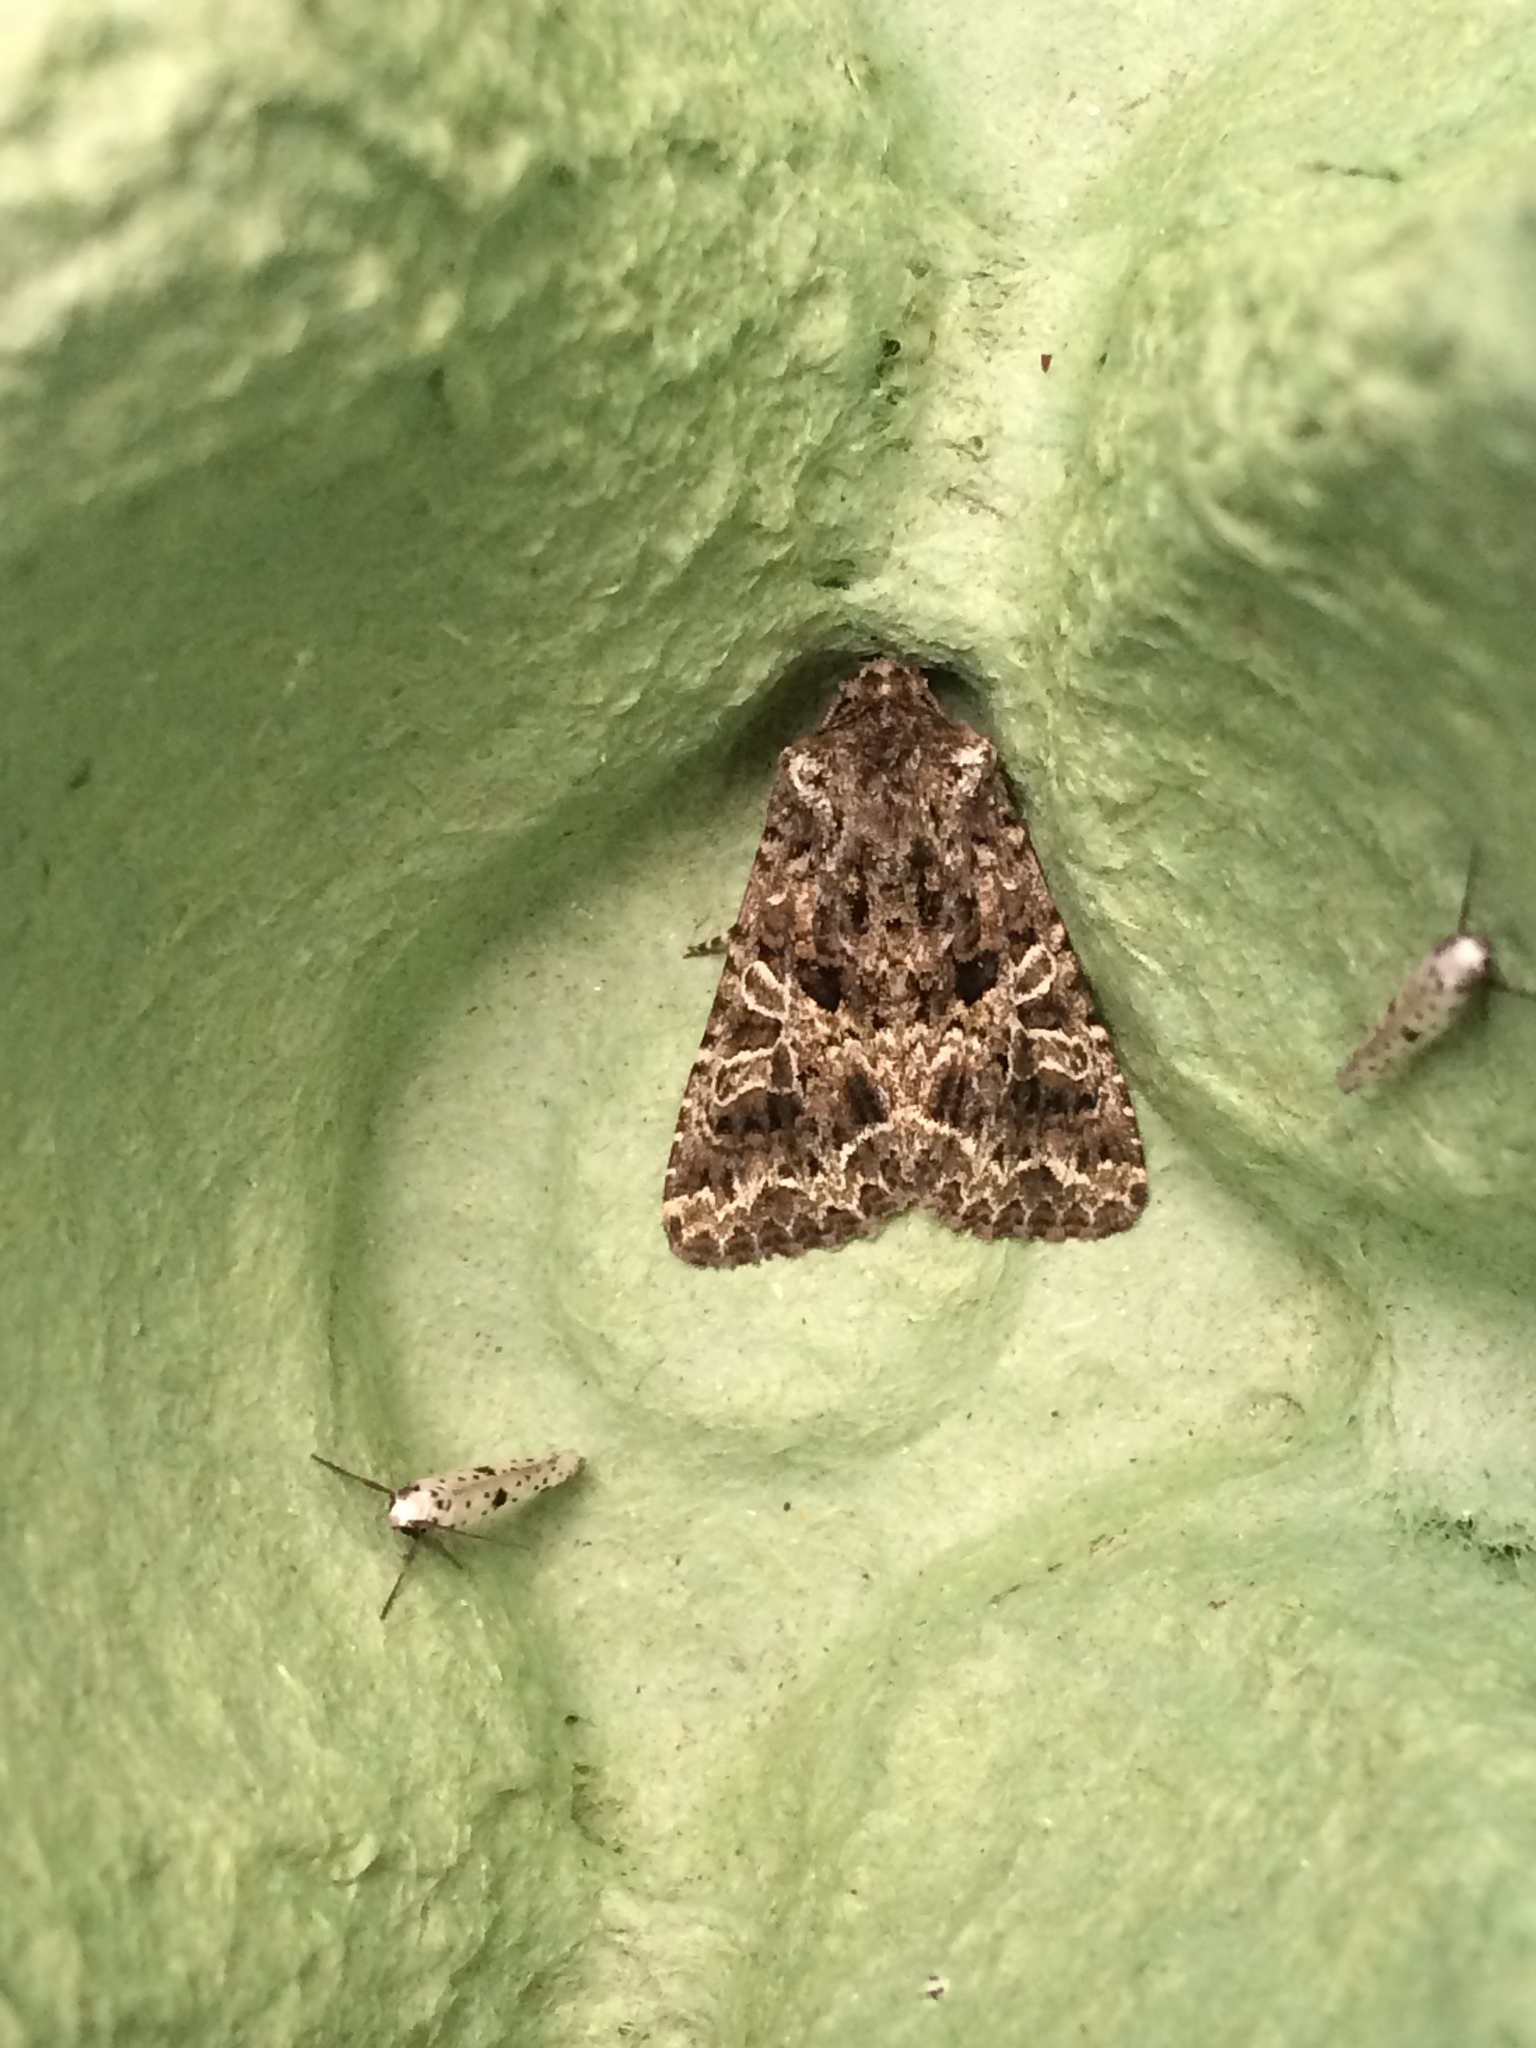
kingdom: Animalia
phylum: Arthropoda
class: Insecta
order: Lepidoptera
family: Noctuidae
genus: Sideridis
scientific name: Sideridis rivularis
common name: Campion
